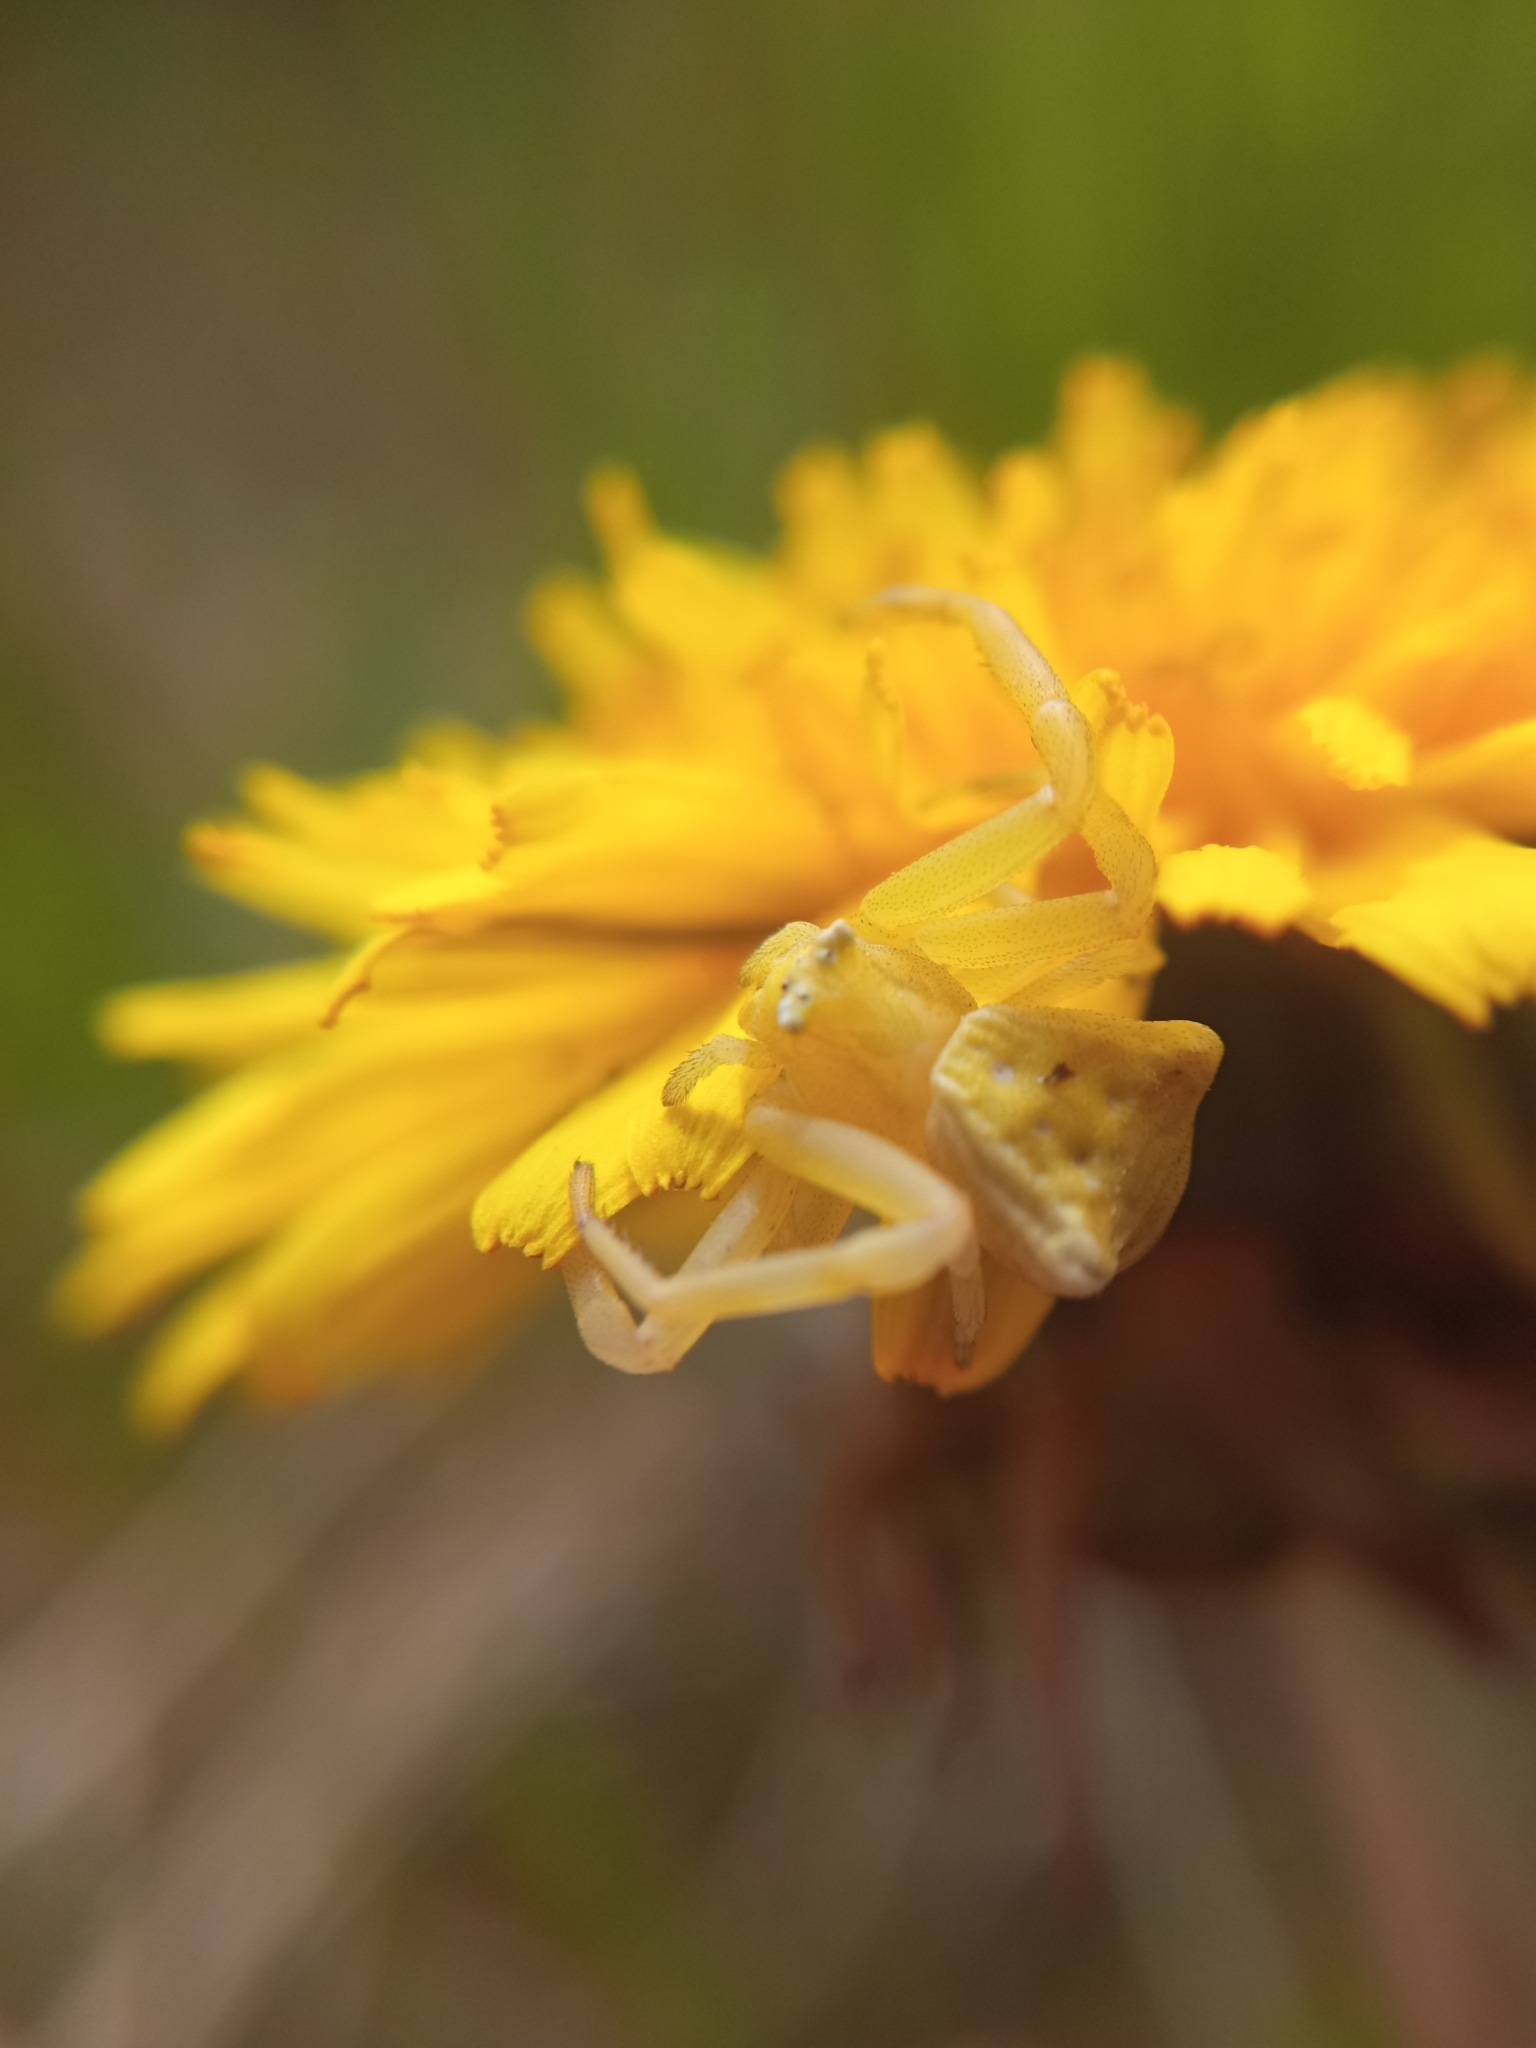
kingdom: Animalia
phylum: Arthropoda
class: Arachnida
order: Araneae
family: Thomisidae
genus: Thomisus
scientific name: Thomisus onustus
